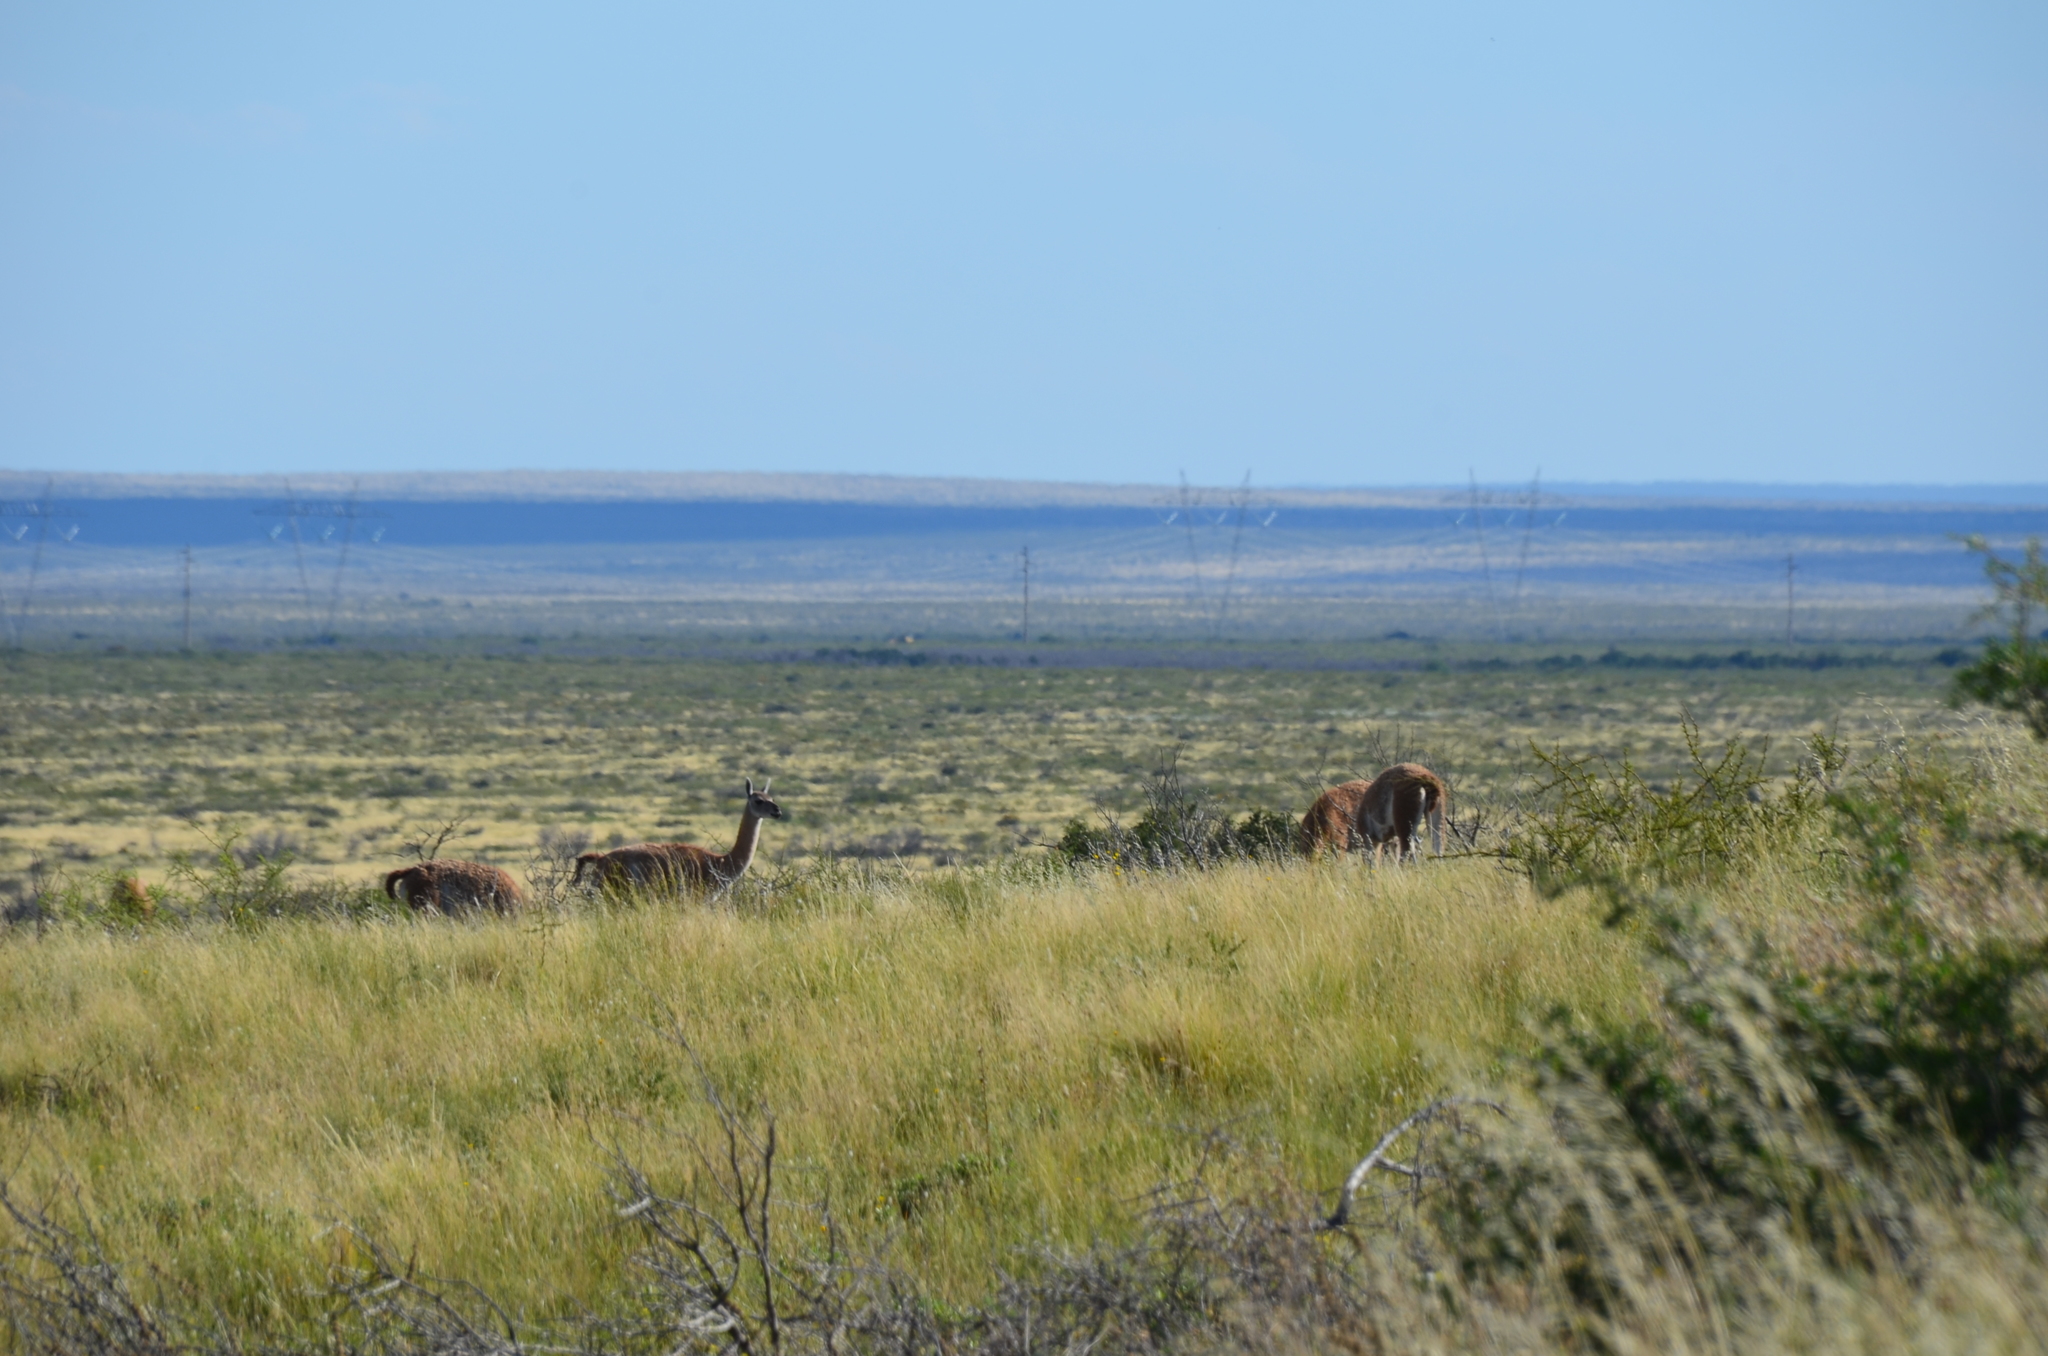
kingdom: Animalia
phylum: Chordata
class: Mammalia
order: Artiodactyla
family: Camelidae
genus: Lama
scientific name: Lama glama
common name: Llama
